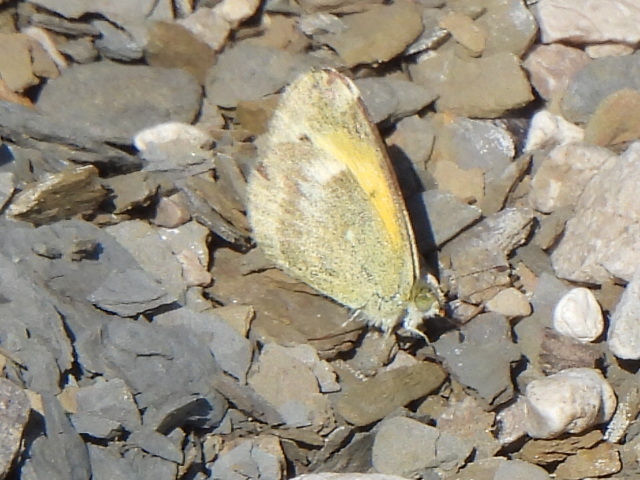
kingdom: Animalia
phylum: Arthropoda
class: Insecta
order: Lepidoptera
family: Pieridae
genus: Nathalis
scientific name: Nathalis iole
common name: Dainty sulphur
